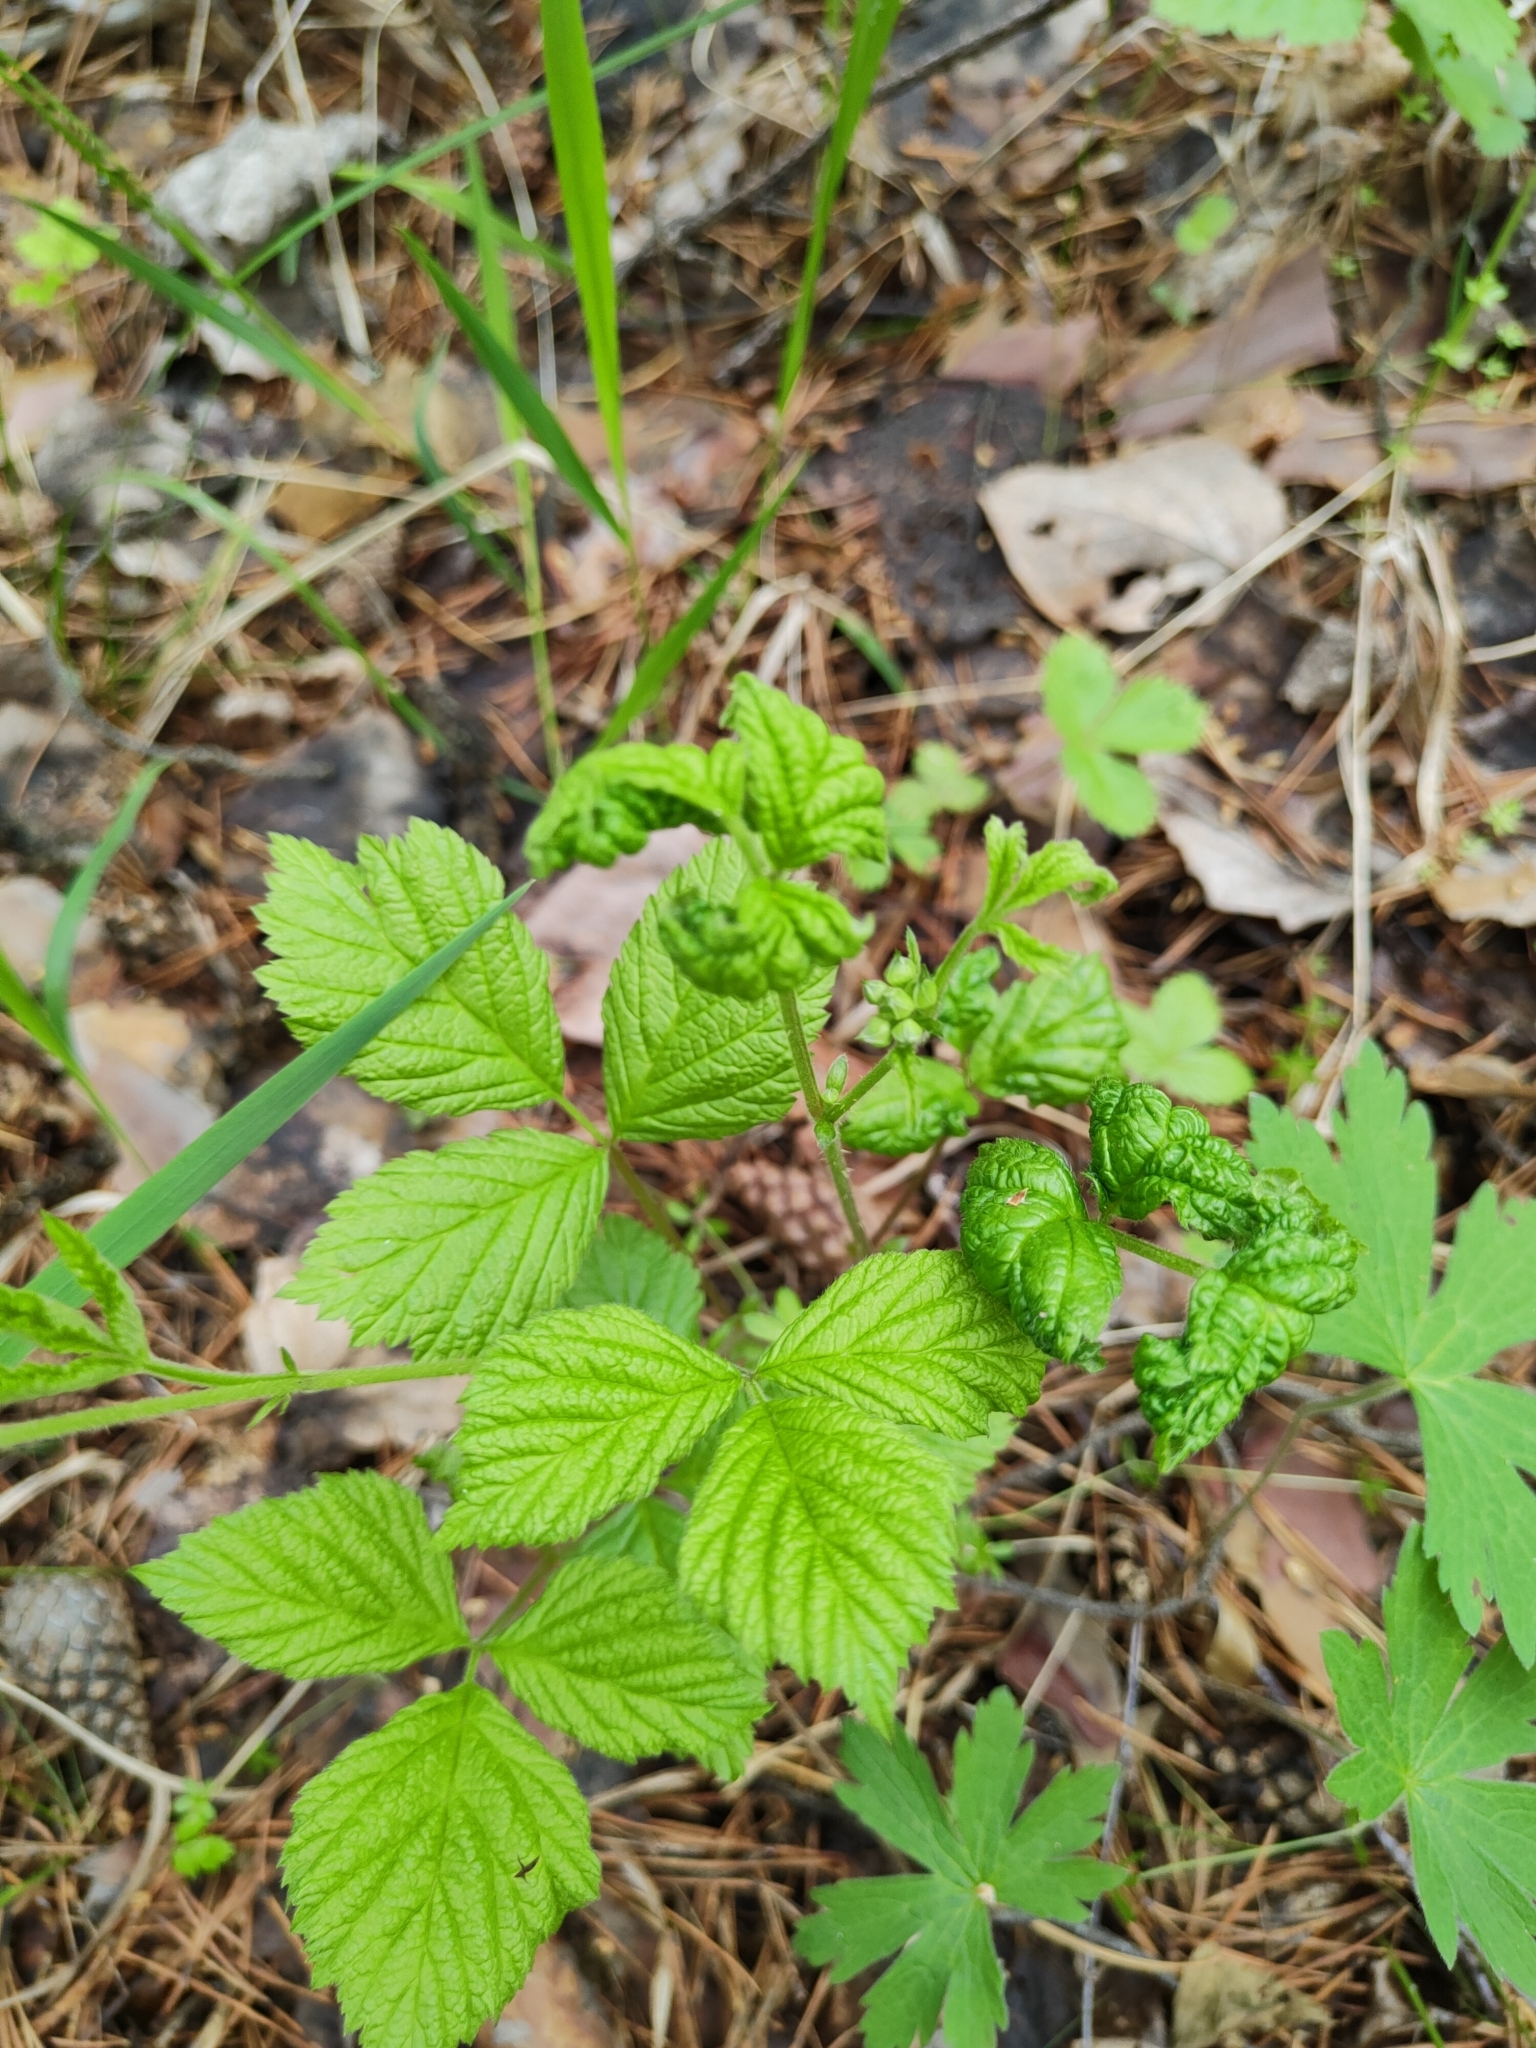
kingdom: Plantae
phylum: Tracheophyta
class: Magnoliopsida
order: Rosales
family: Rosaceae
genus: Rubus
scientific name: Rubus saxatilis
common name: Stone bramble
